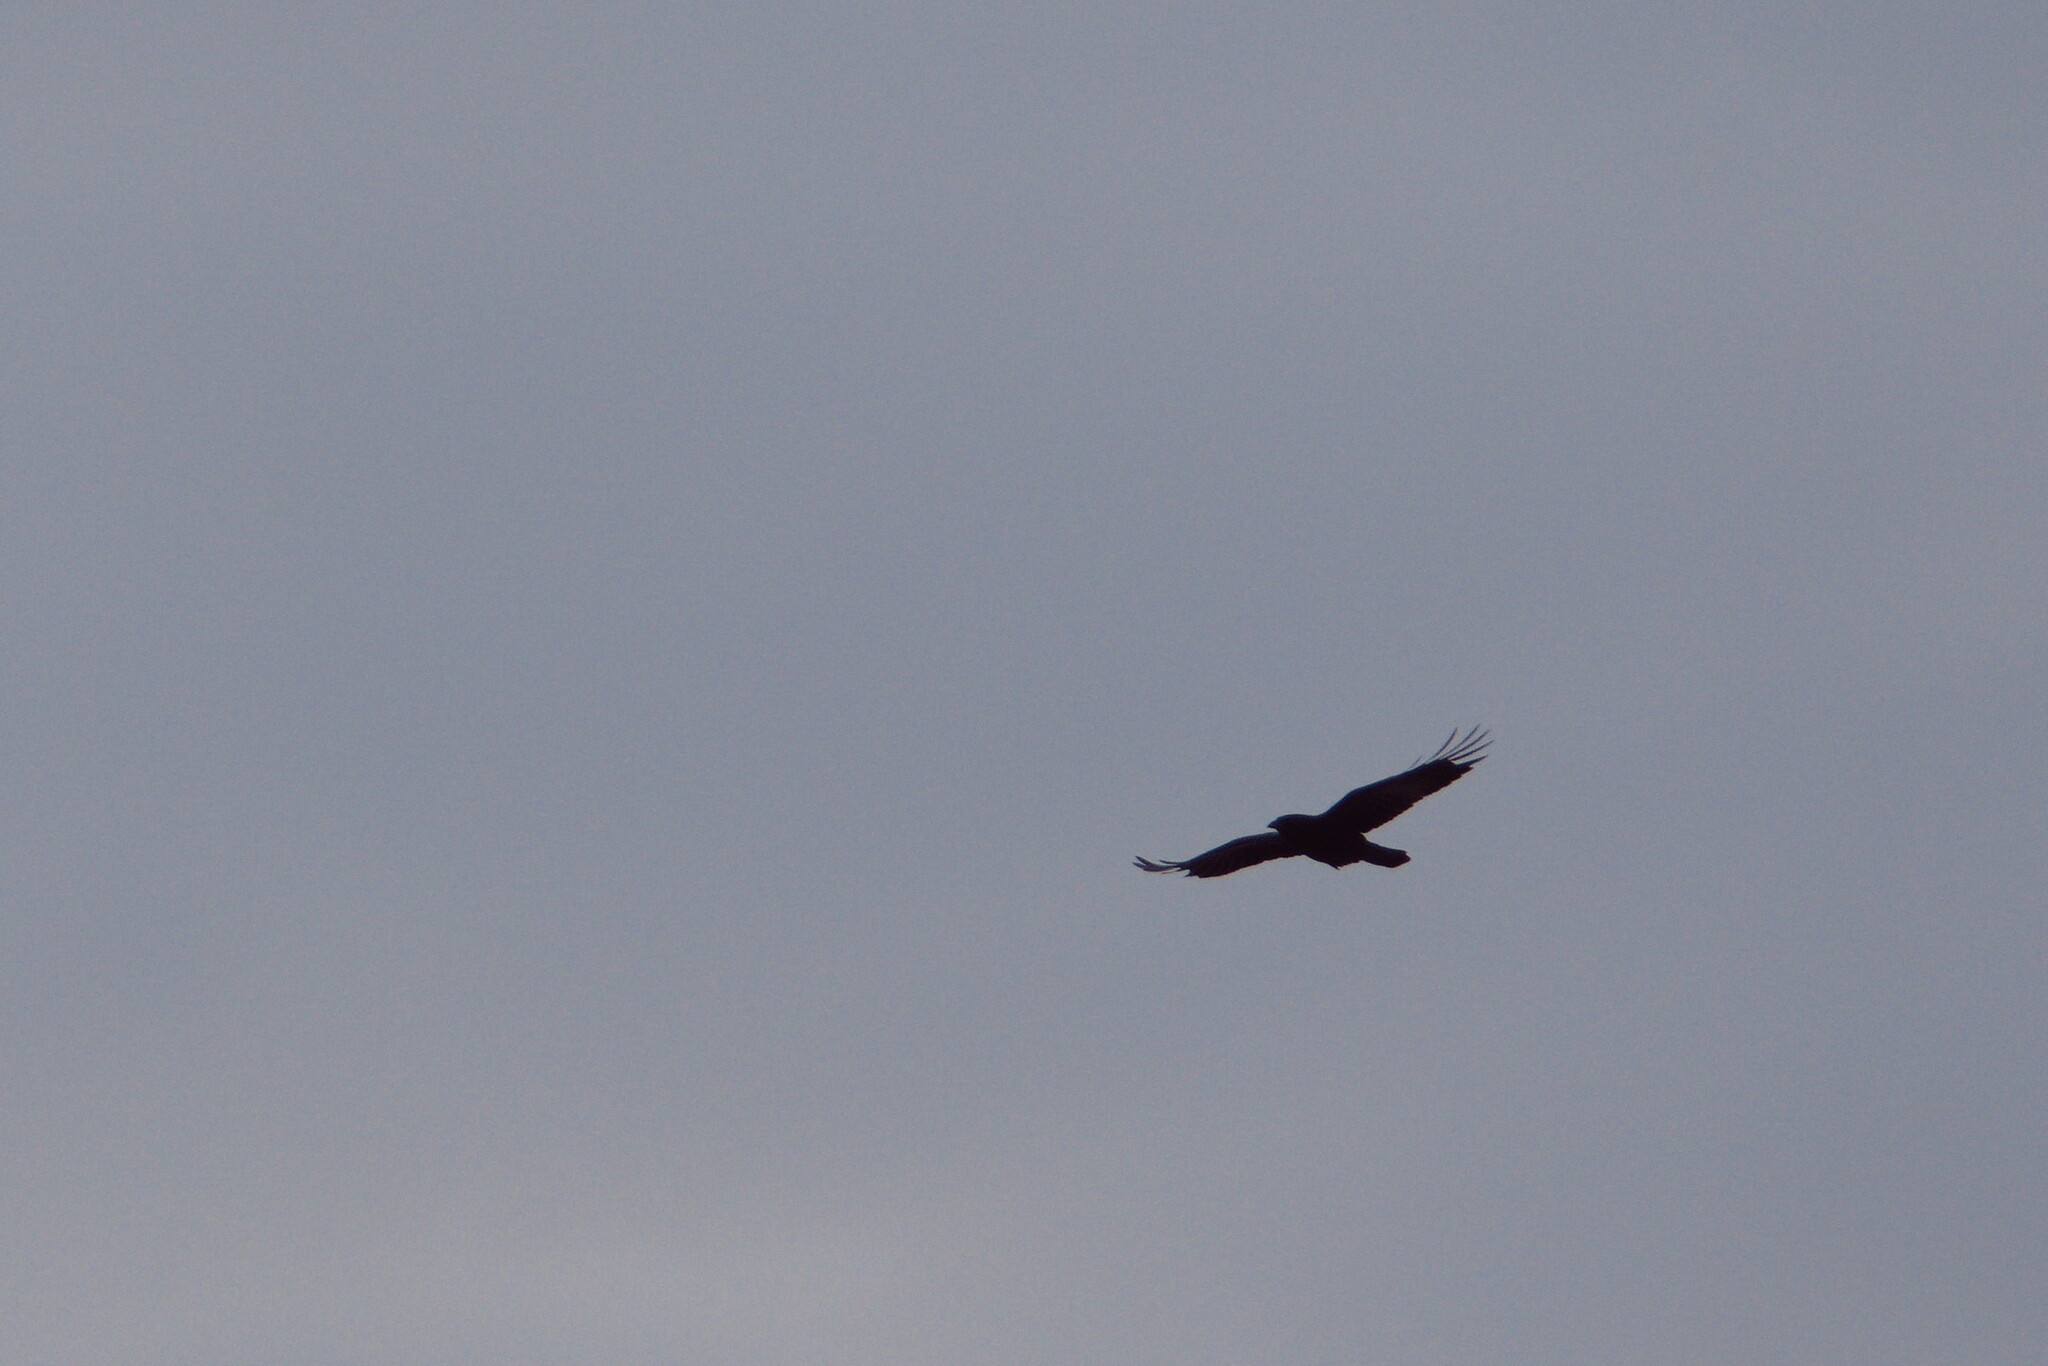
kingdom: Animalia
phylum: Chordata
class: Aves
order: Passeriformes
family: Corvidae
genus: Corvus
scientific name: Corvus brachyrhynchos
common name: American crow
